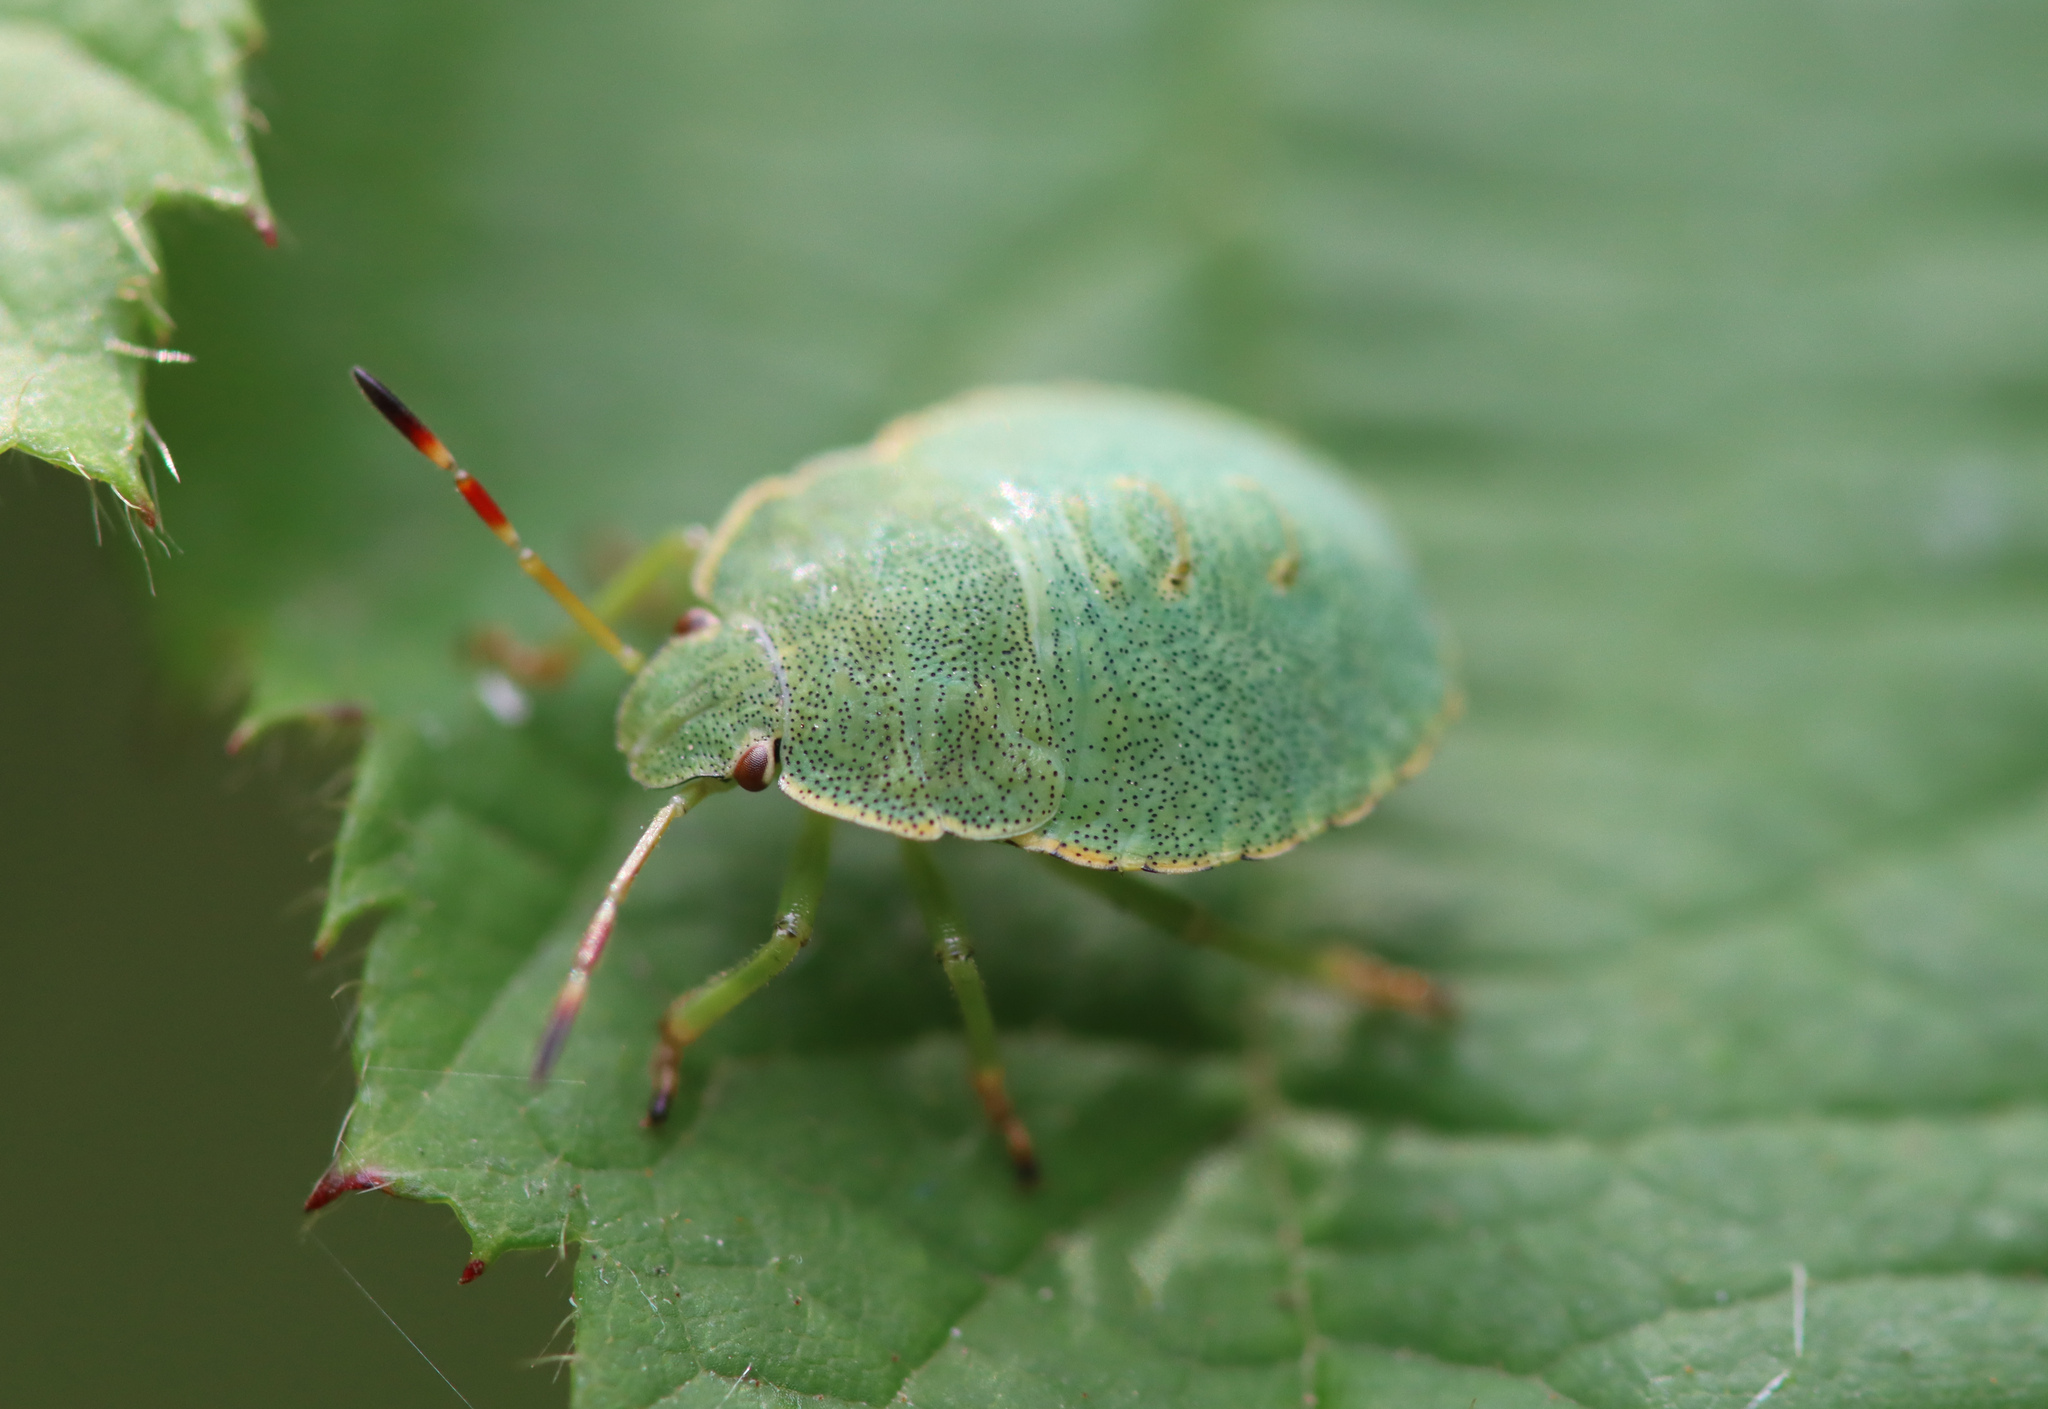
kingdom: Animalia
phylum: Arthropoda
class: Insecta
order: Hemiptera
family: Pentatomidae
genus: Palomena
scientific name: Palomena prasina
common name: Green shieldbug
